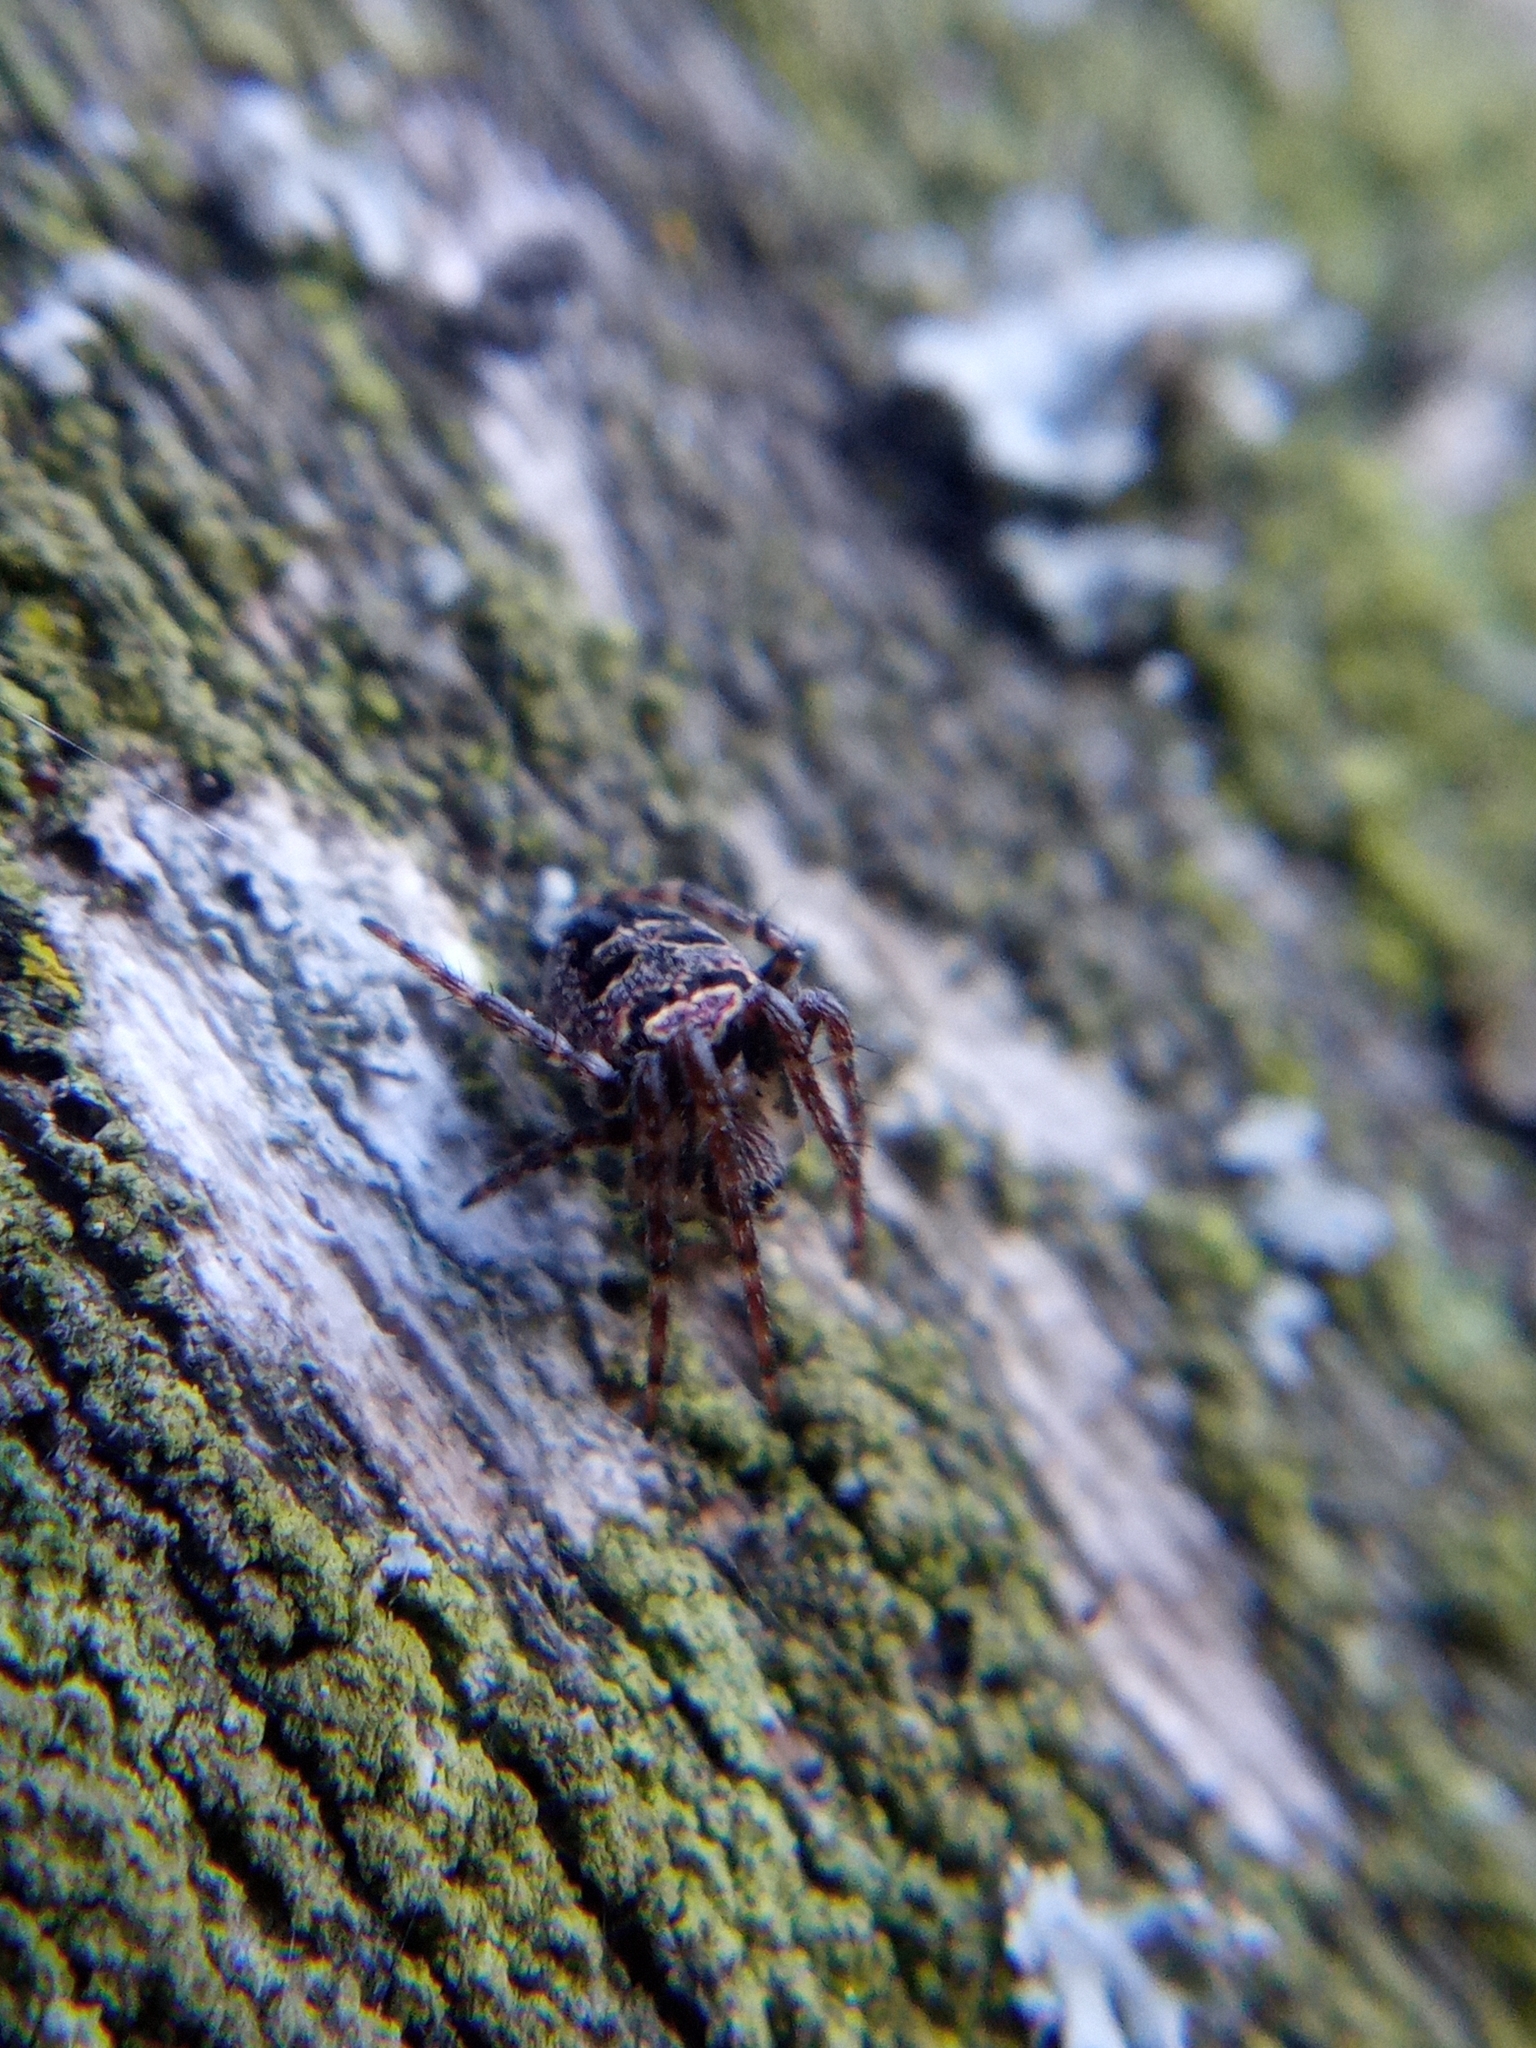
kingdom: Animalia
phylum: Arthropoda
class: Arachnida
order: Araneae
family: Araneidae
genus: Zilla
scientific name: Zilla diodia
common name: Zilla diodia
